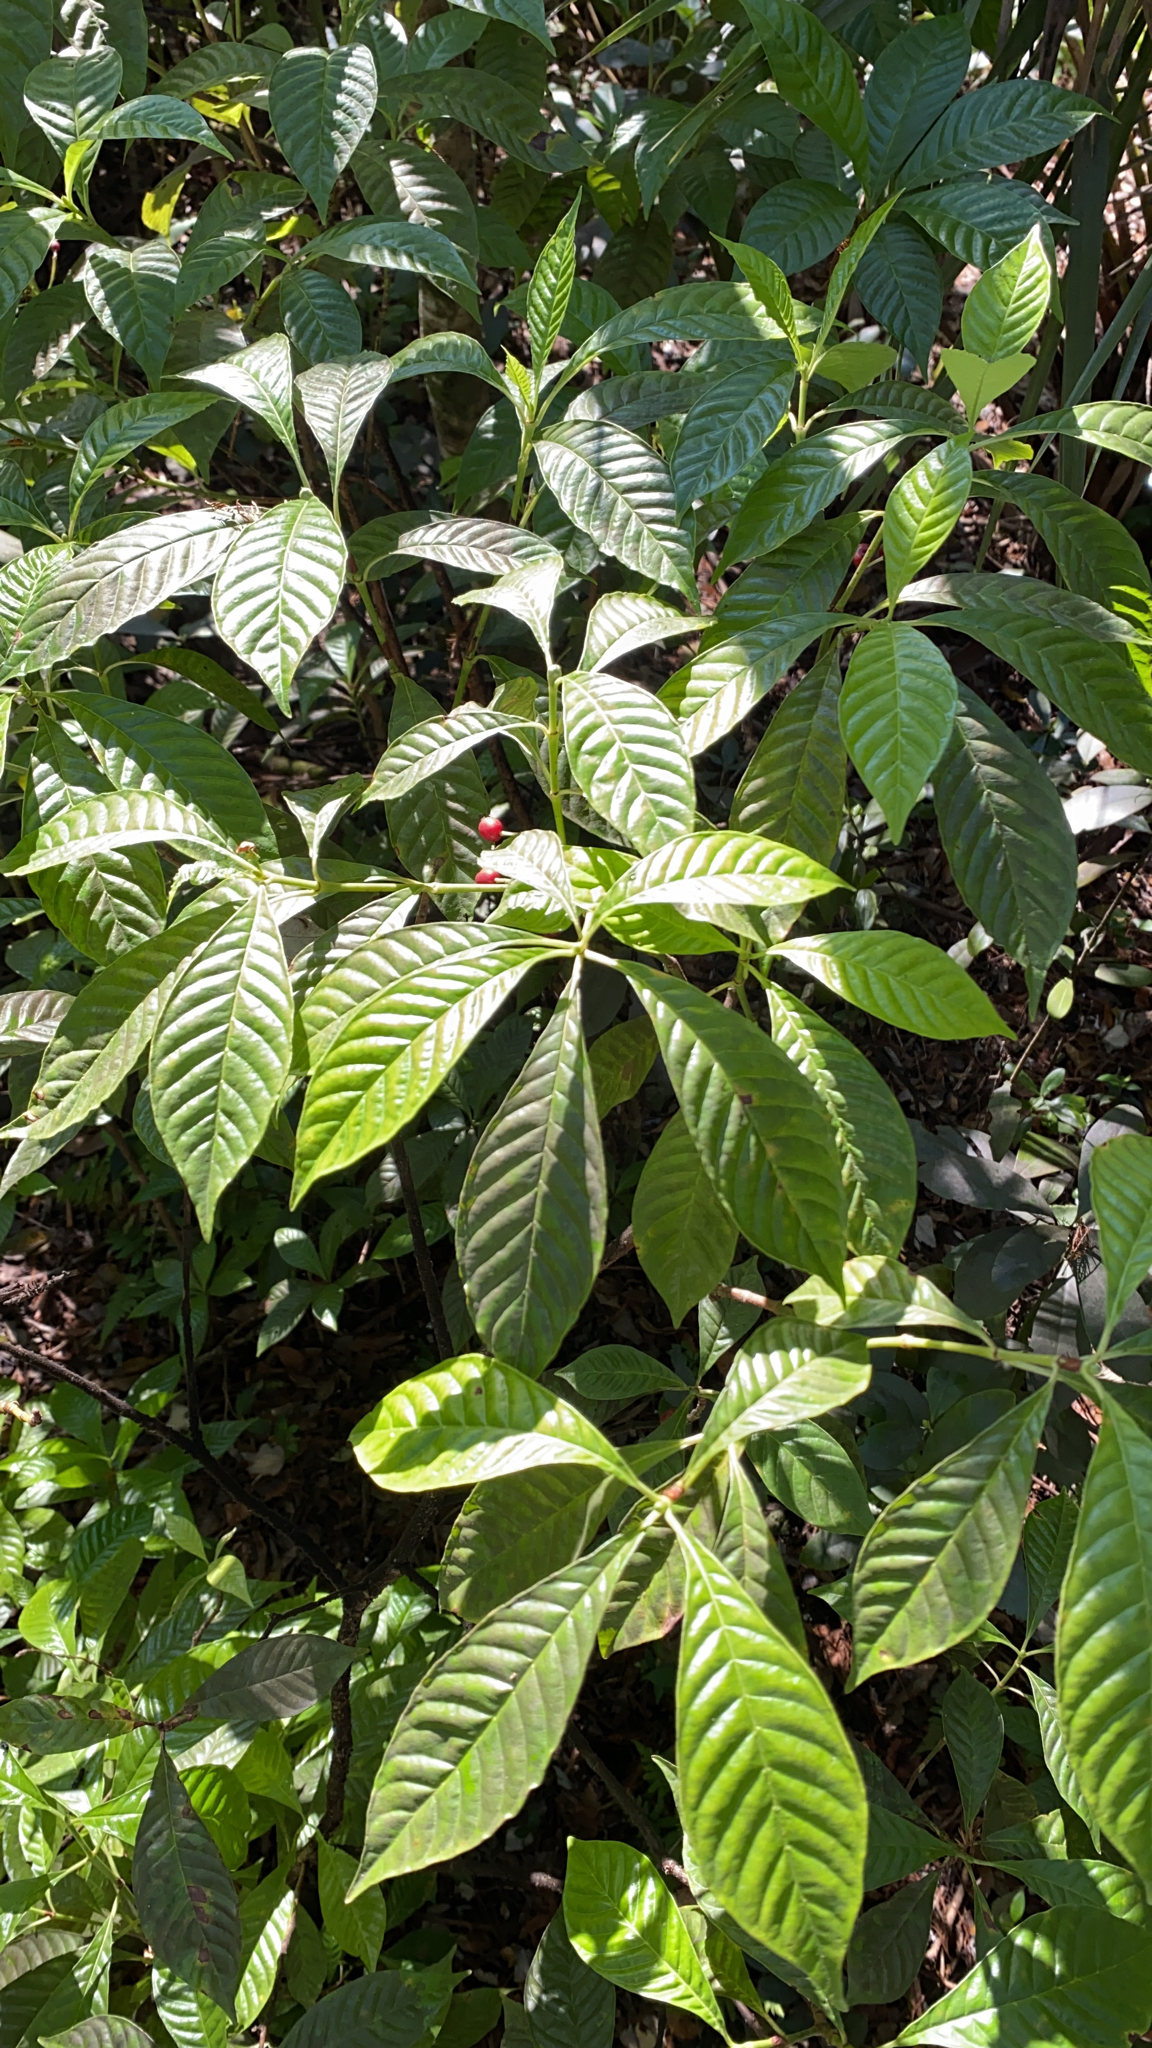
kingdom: Plantae
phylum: Tracheophyta
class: Magnoliopsida
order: Gentianales
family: Rubiaceae
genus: Psychotria
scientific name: Psychotria nervosa
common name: Bastard cankerberry
